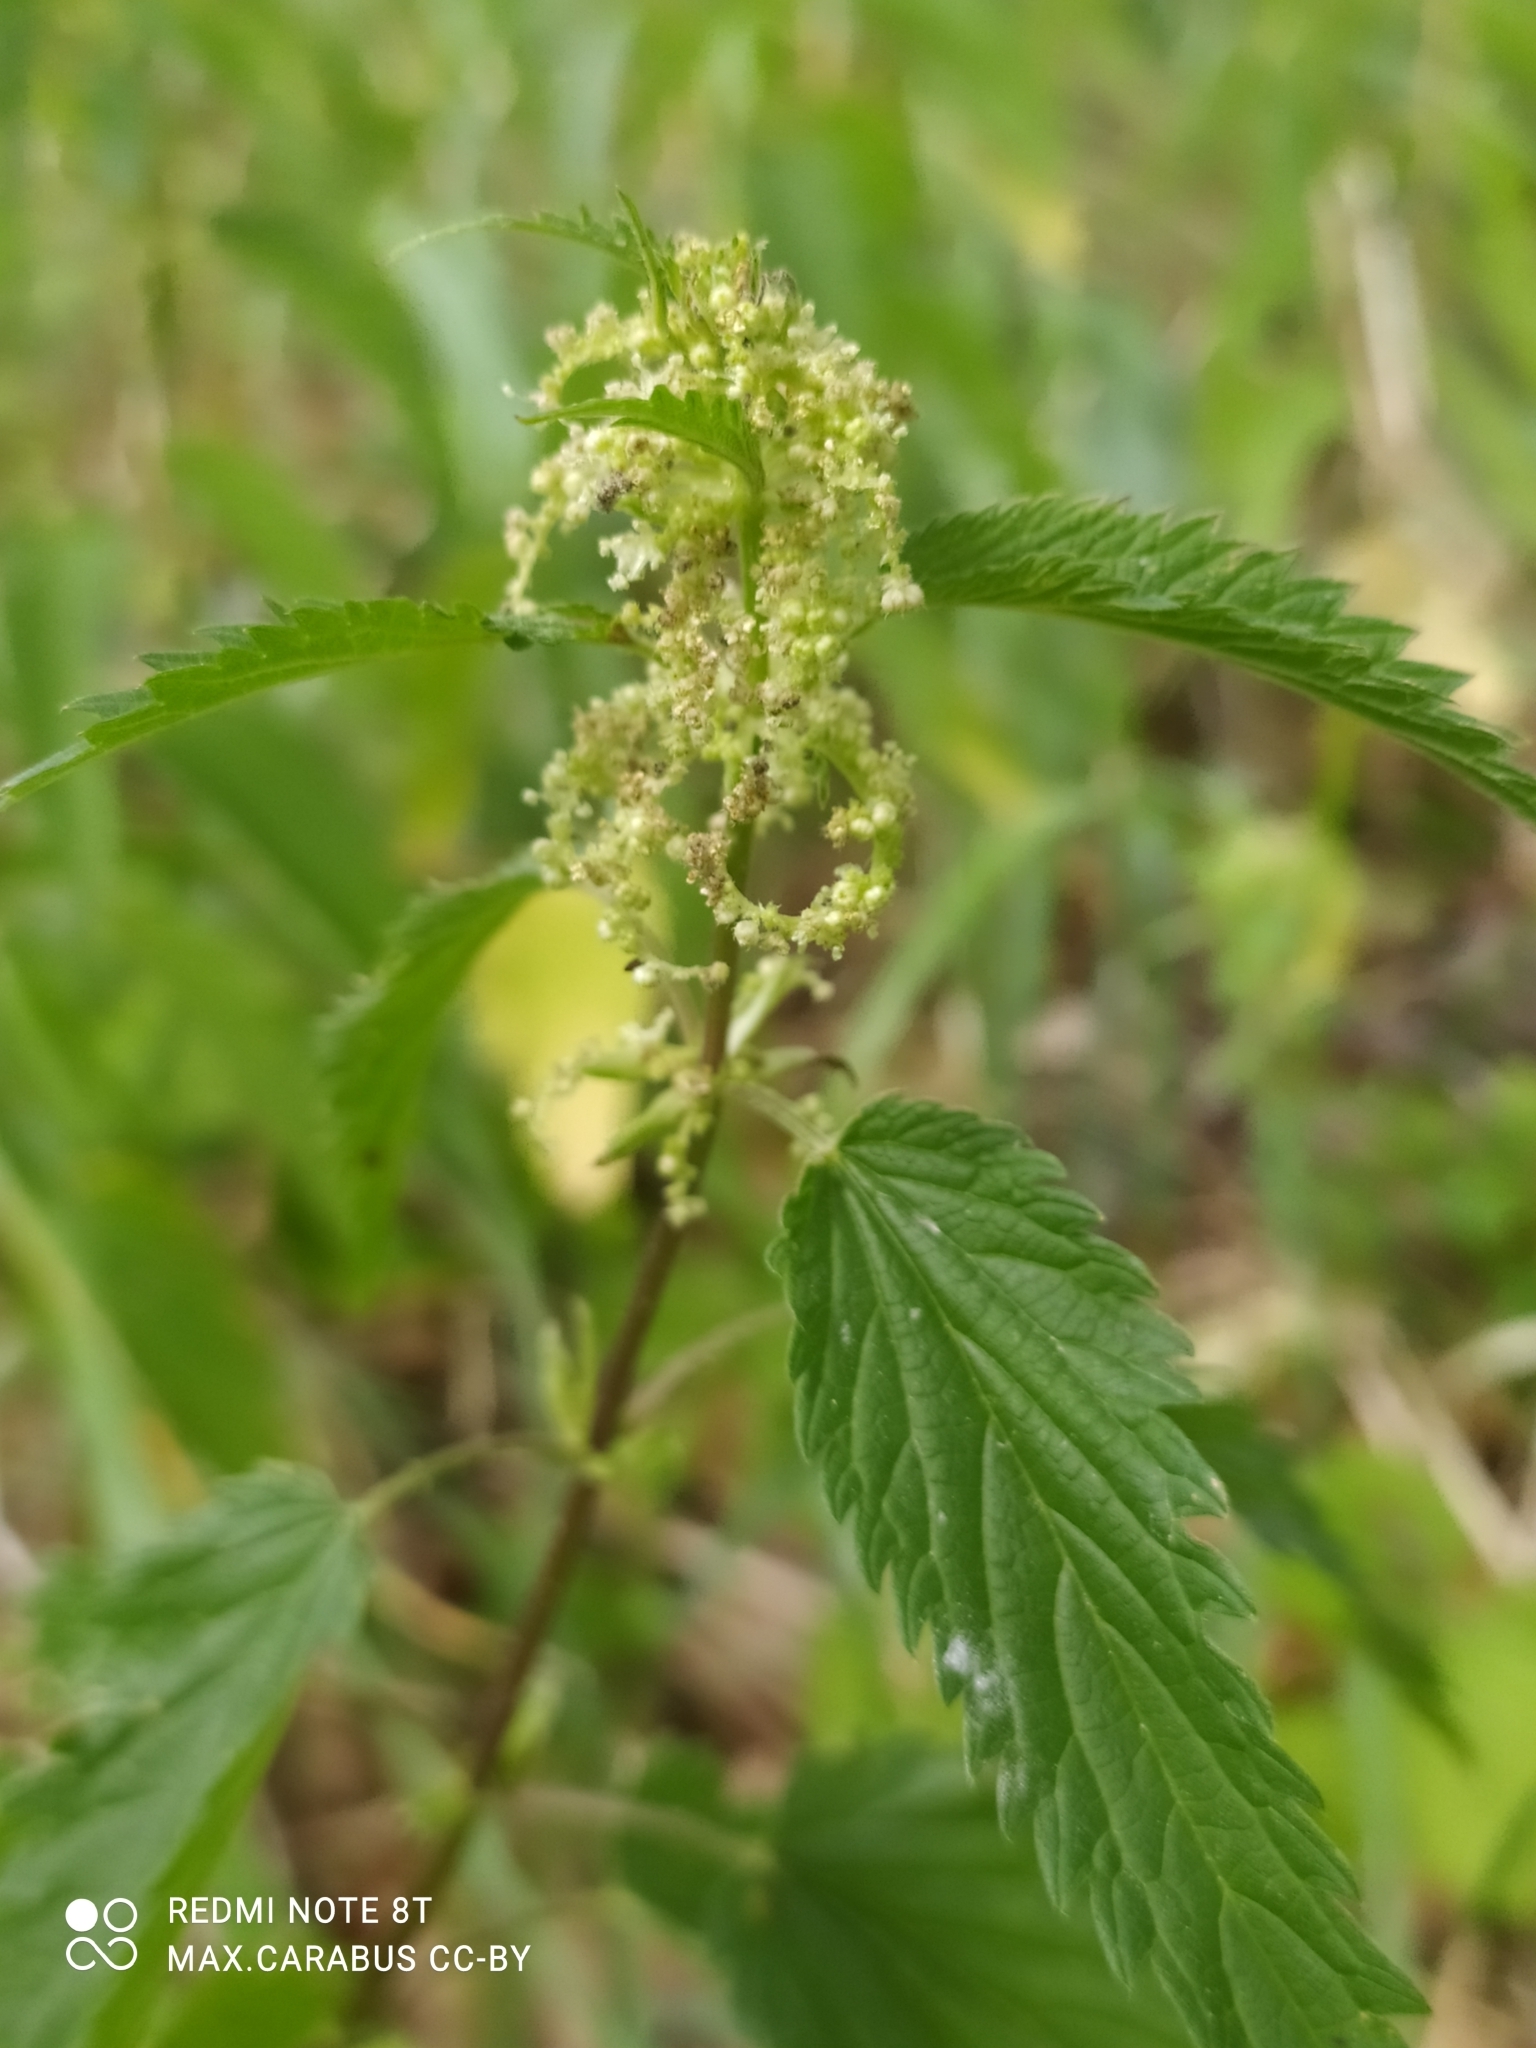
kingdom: Plantae
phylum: Tracheophyta
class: Magnoliopsida
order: Rosales
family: Urticaceae
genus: Urtica
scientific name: Urtica dioica
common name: Common nettle
